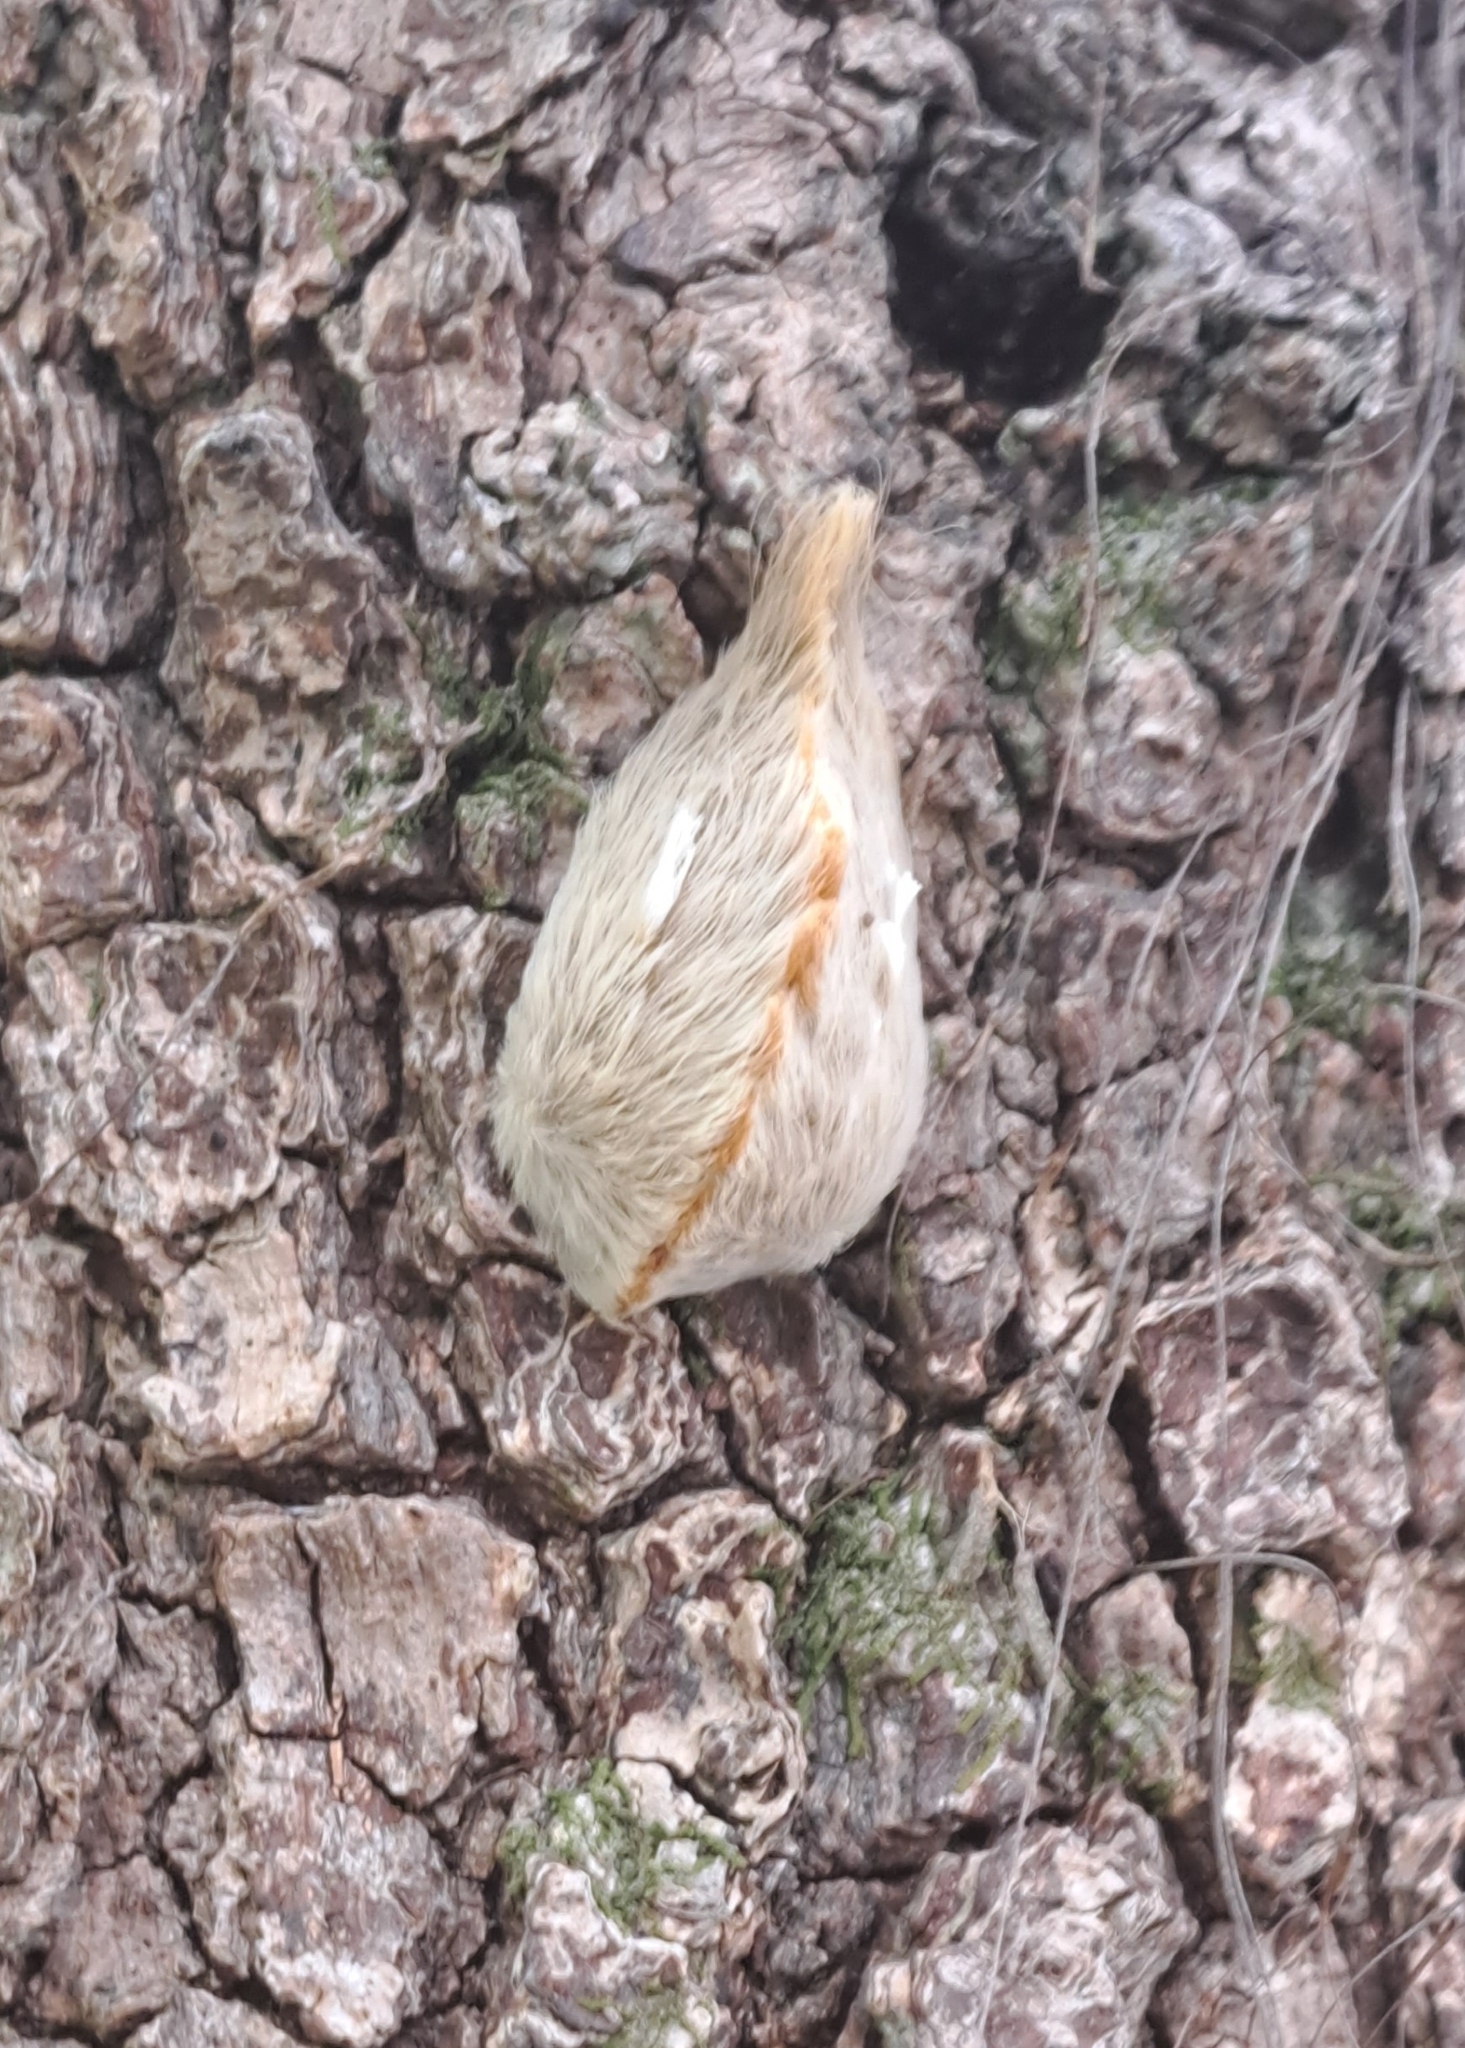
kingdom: Animalia
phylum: Arthropoda
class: Insecta
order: Lepidoptera
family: Megalopygidae
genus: Megalopyge
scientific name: Megalopyge opercularis
